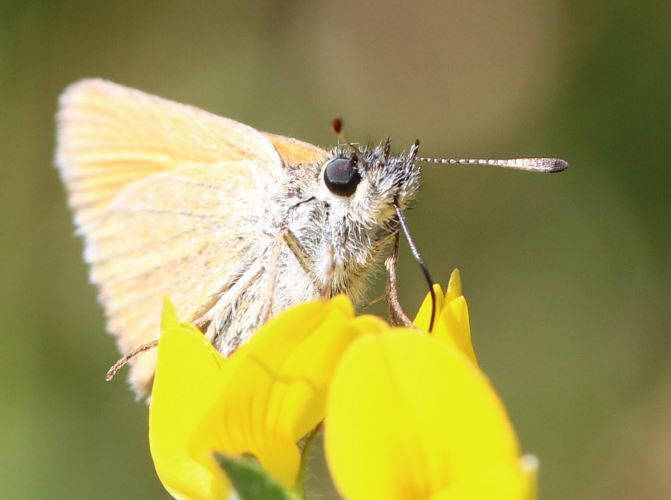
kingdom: Animalia
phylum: Arthropoda
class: Insecta
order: Lepidoptera
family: Hesperiidae
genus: Thymelicus
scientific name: Thymelicus lineola
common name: Essex skipper
